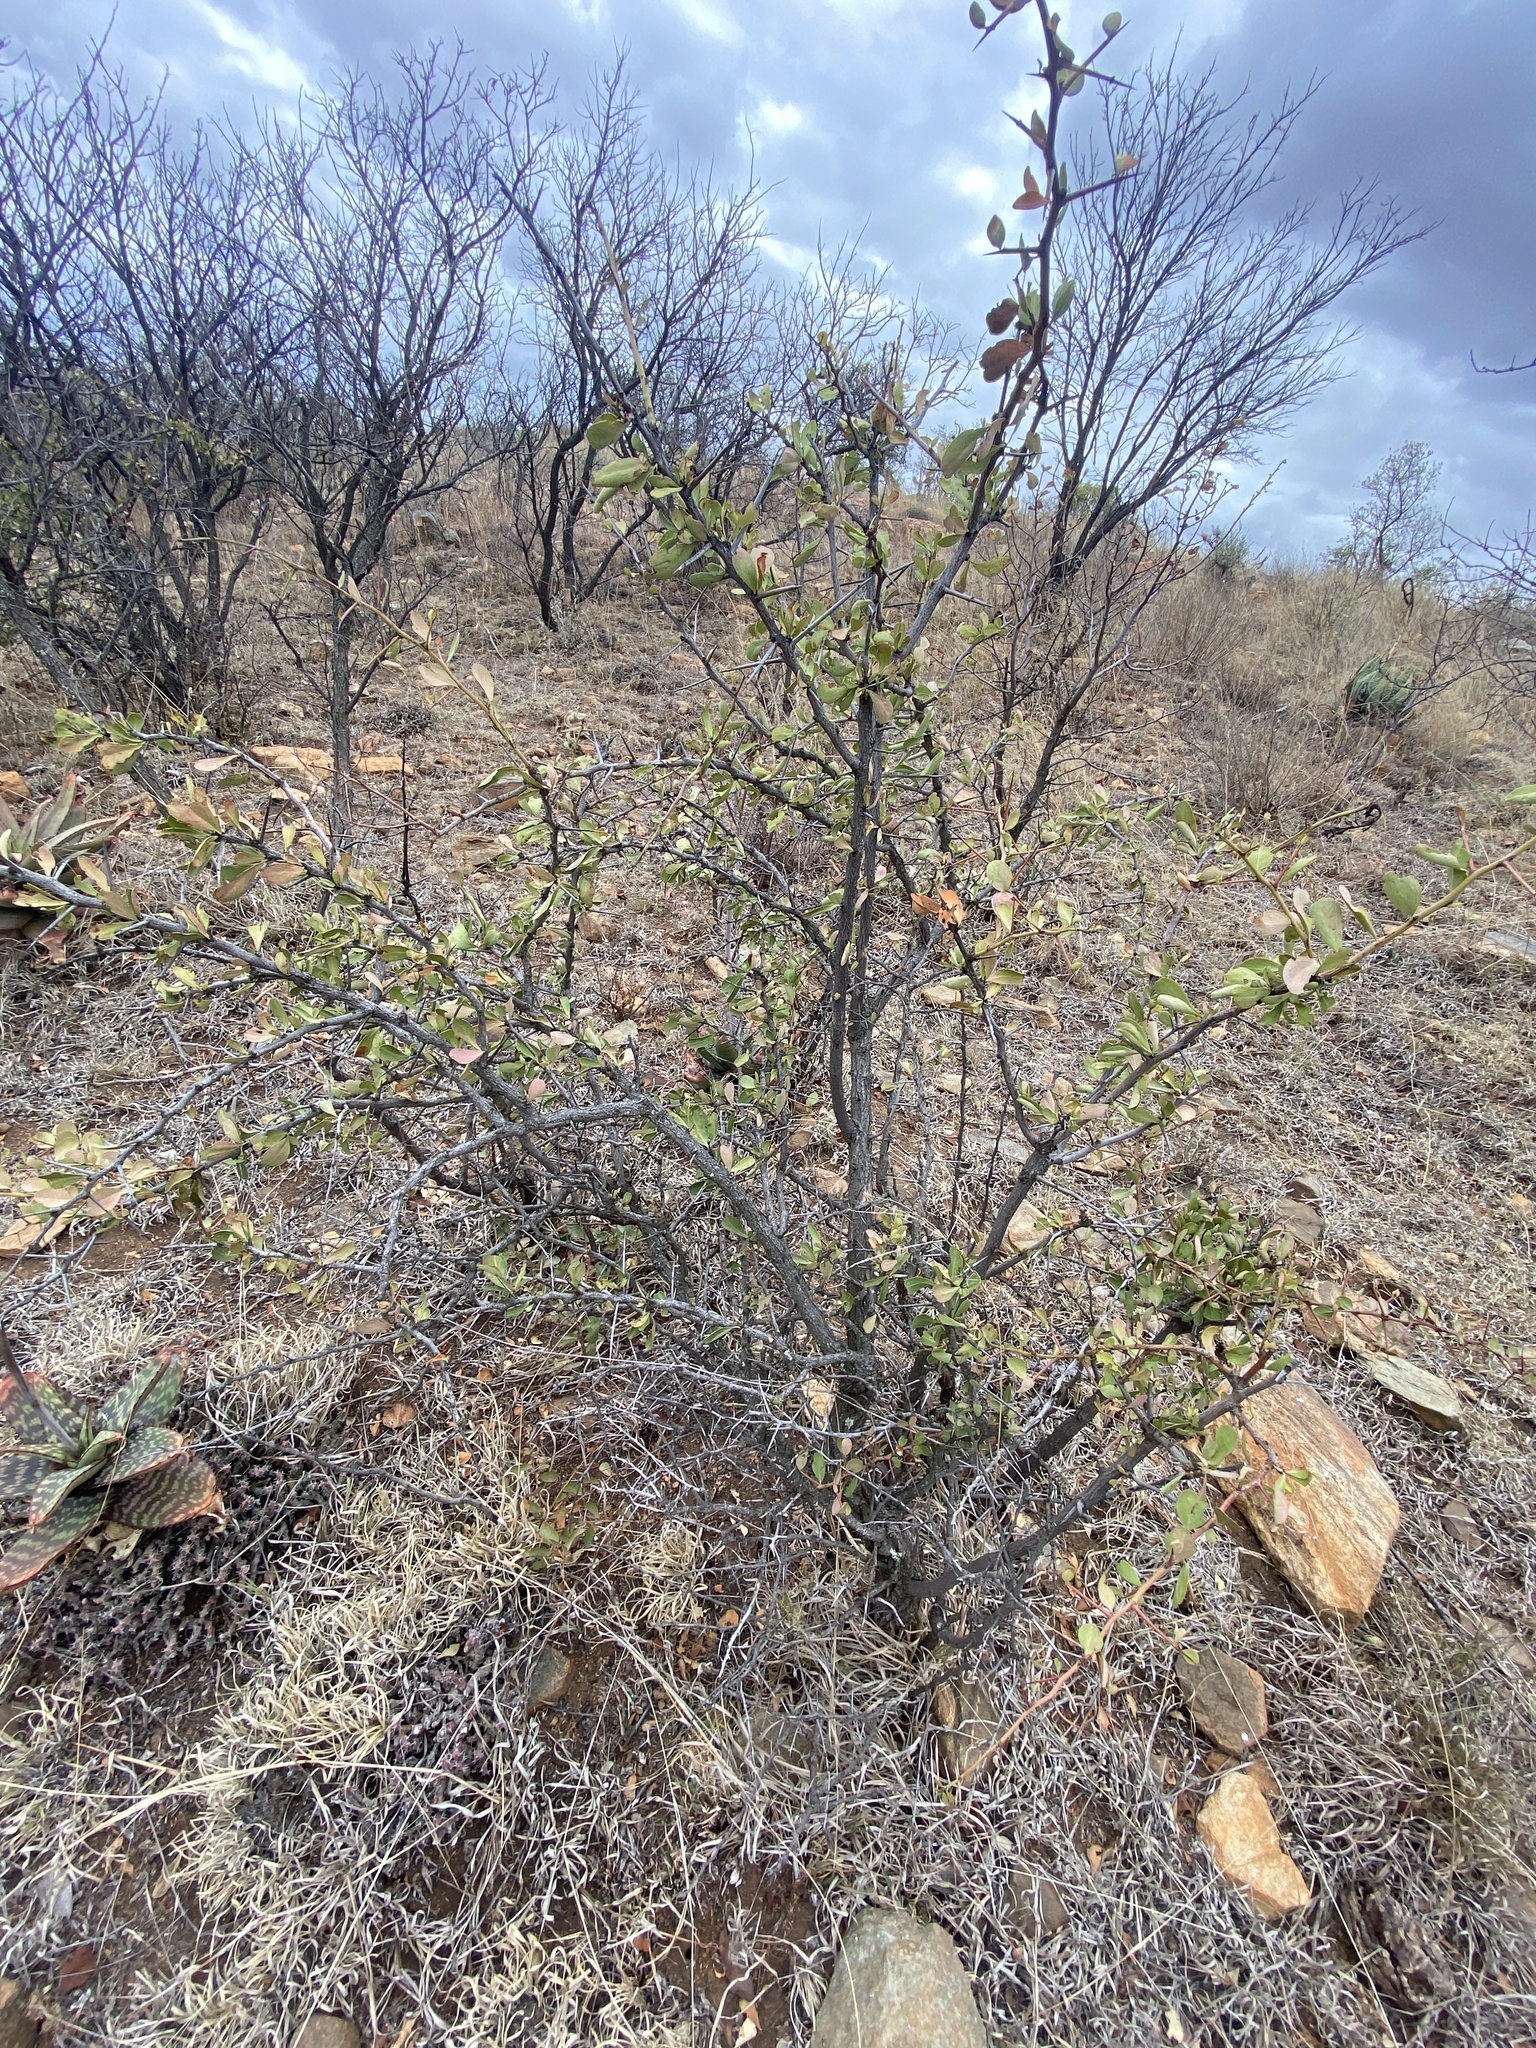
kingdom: Plantae
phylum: Tracheophyta
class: Magnoliopsida
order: Celastrales
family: Celastraceae
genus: Gymnosporia
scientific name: Gymnosporia glaucophylla
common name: Blue spike-thorn
